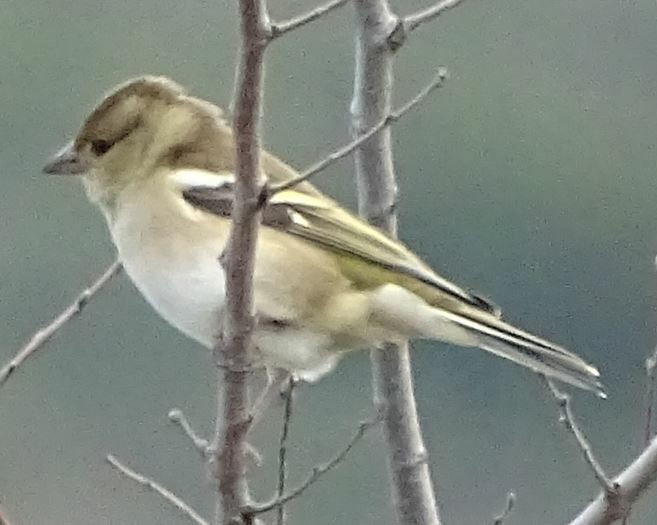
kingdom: Animalia
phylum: Chordata
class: Aves
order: Passeriformes
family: Fringillidae
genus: Fringilla
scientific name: Fringilla coelebs
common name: Common chaffinch
